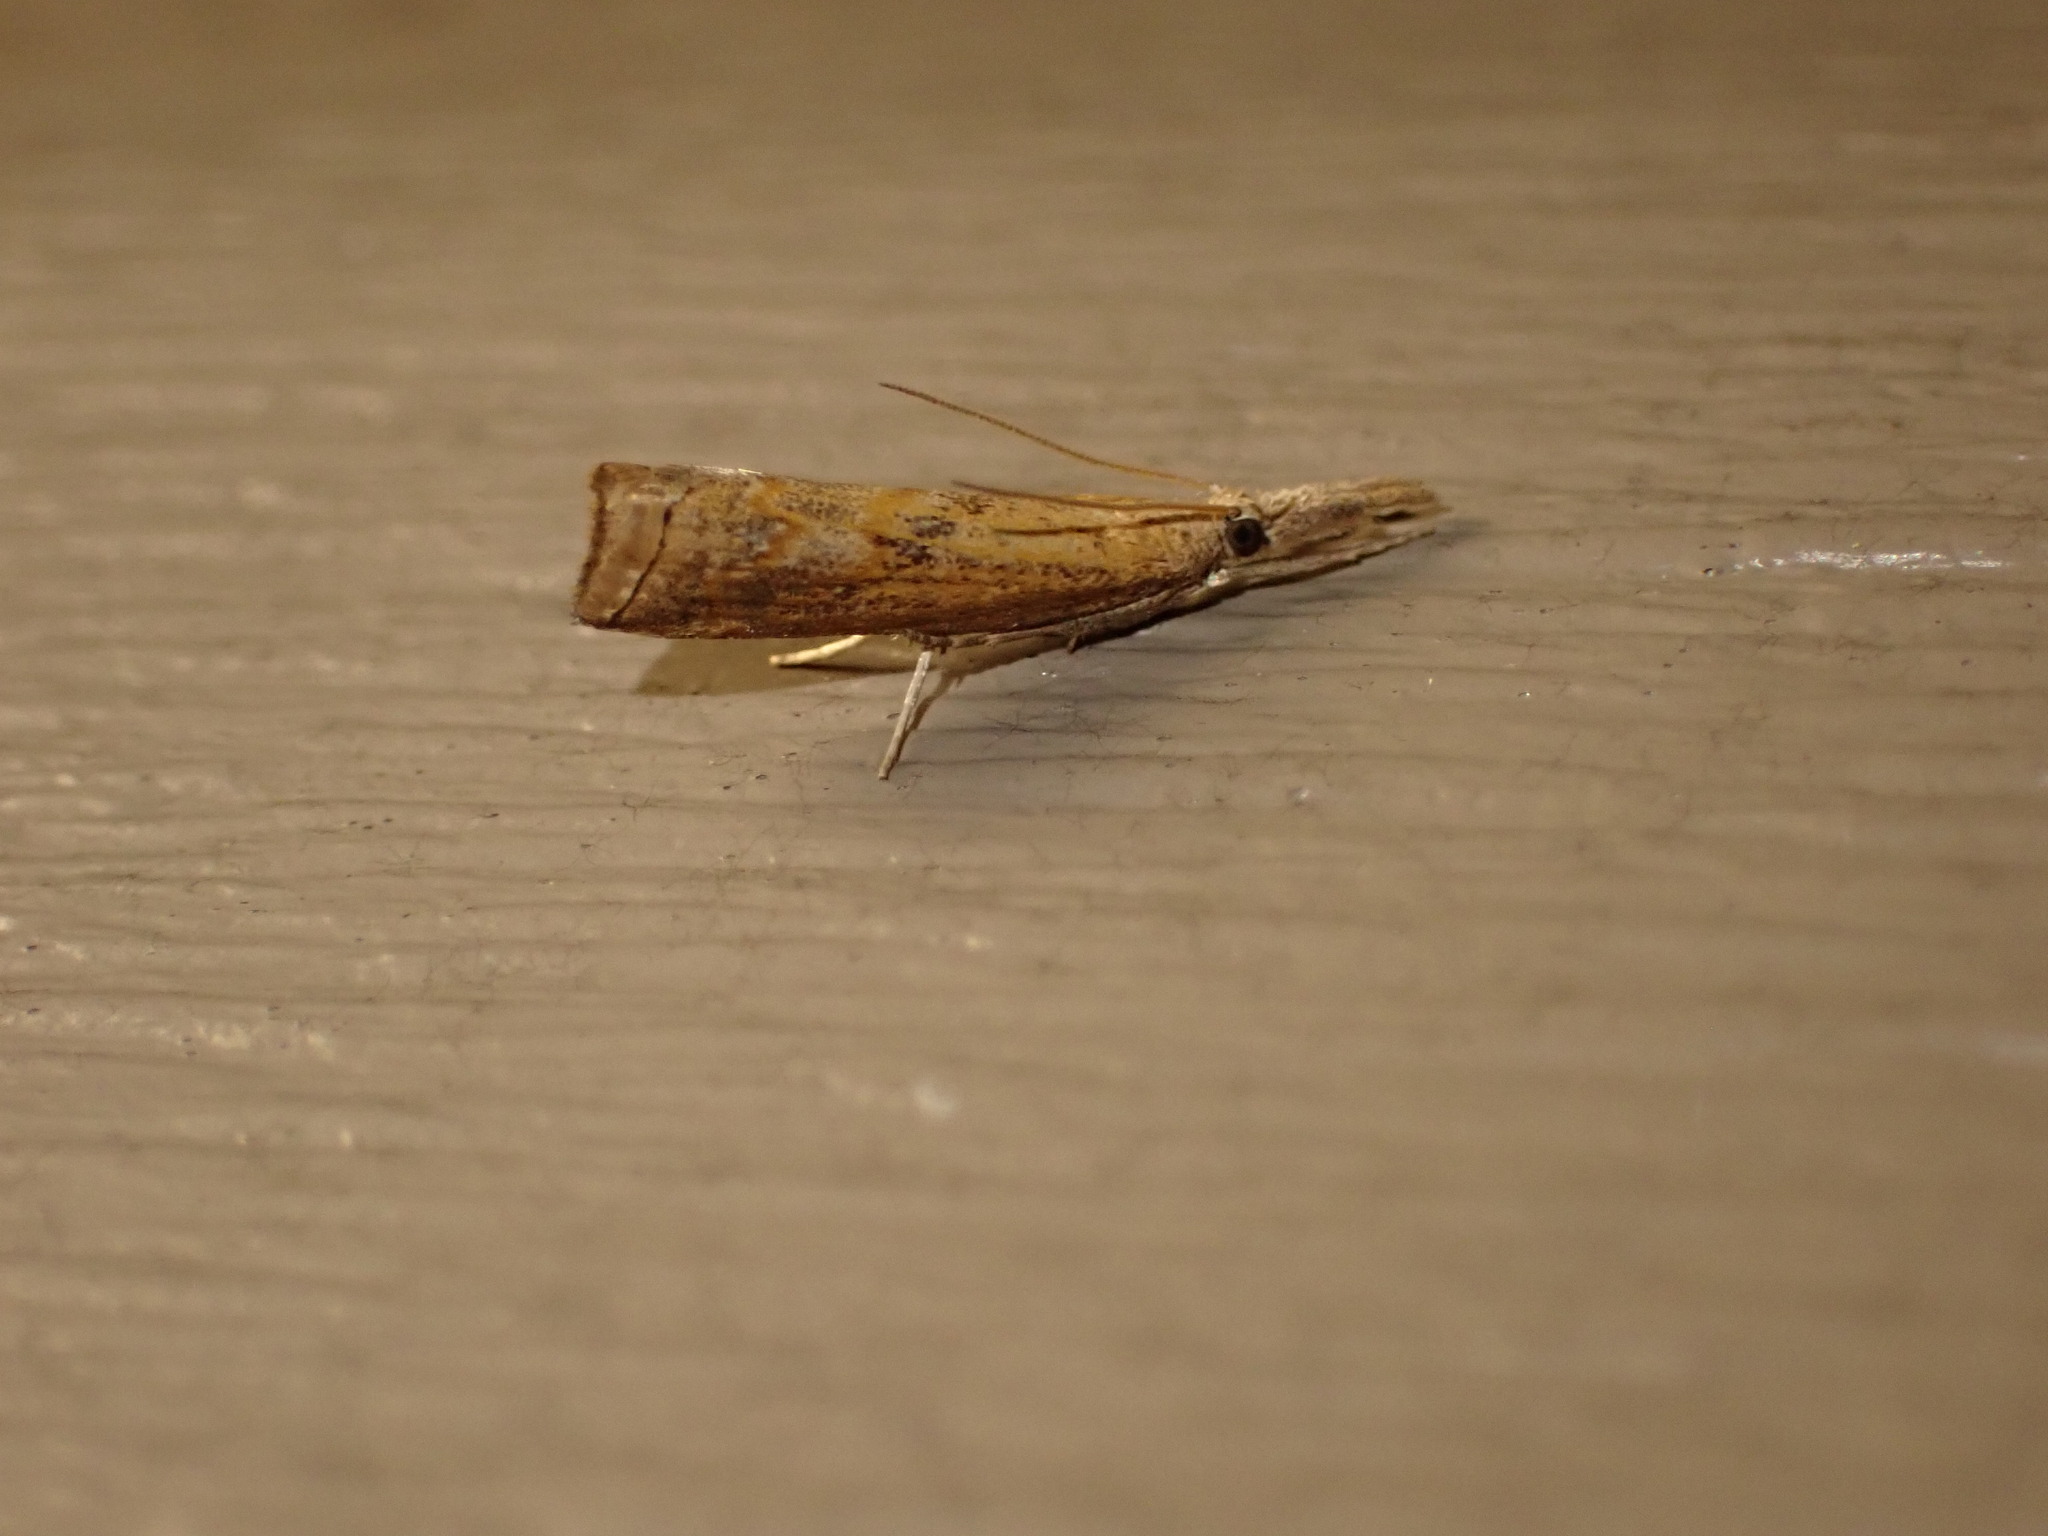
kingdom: Animalia
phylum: Arthropoda
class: Insecta
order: Lepidoptera
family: Crambidae
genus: Neodactria
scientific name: Neodactria
